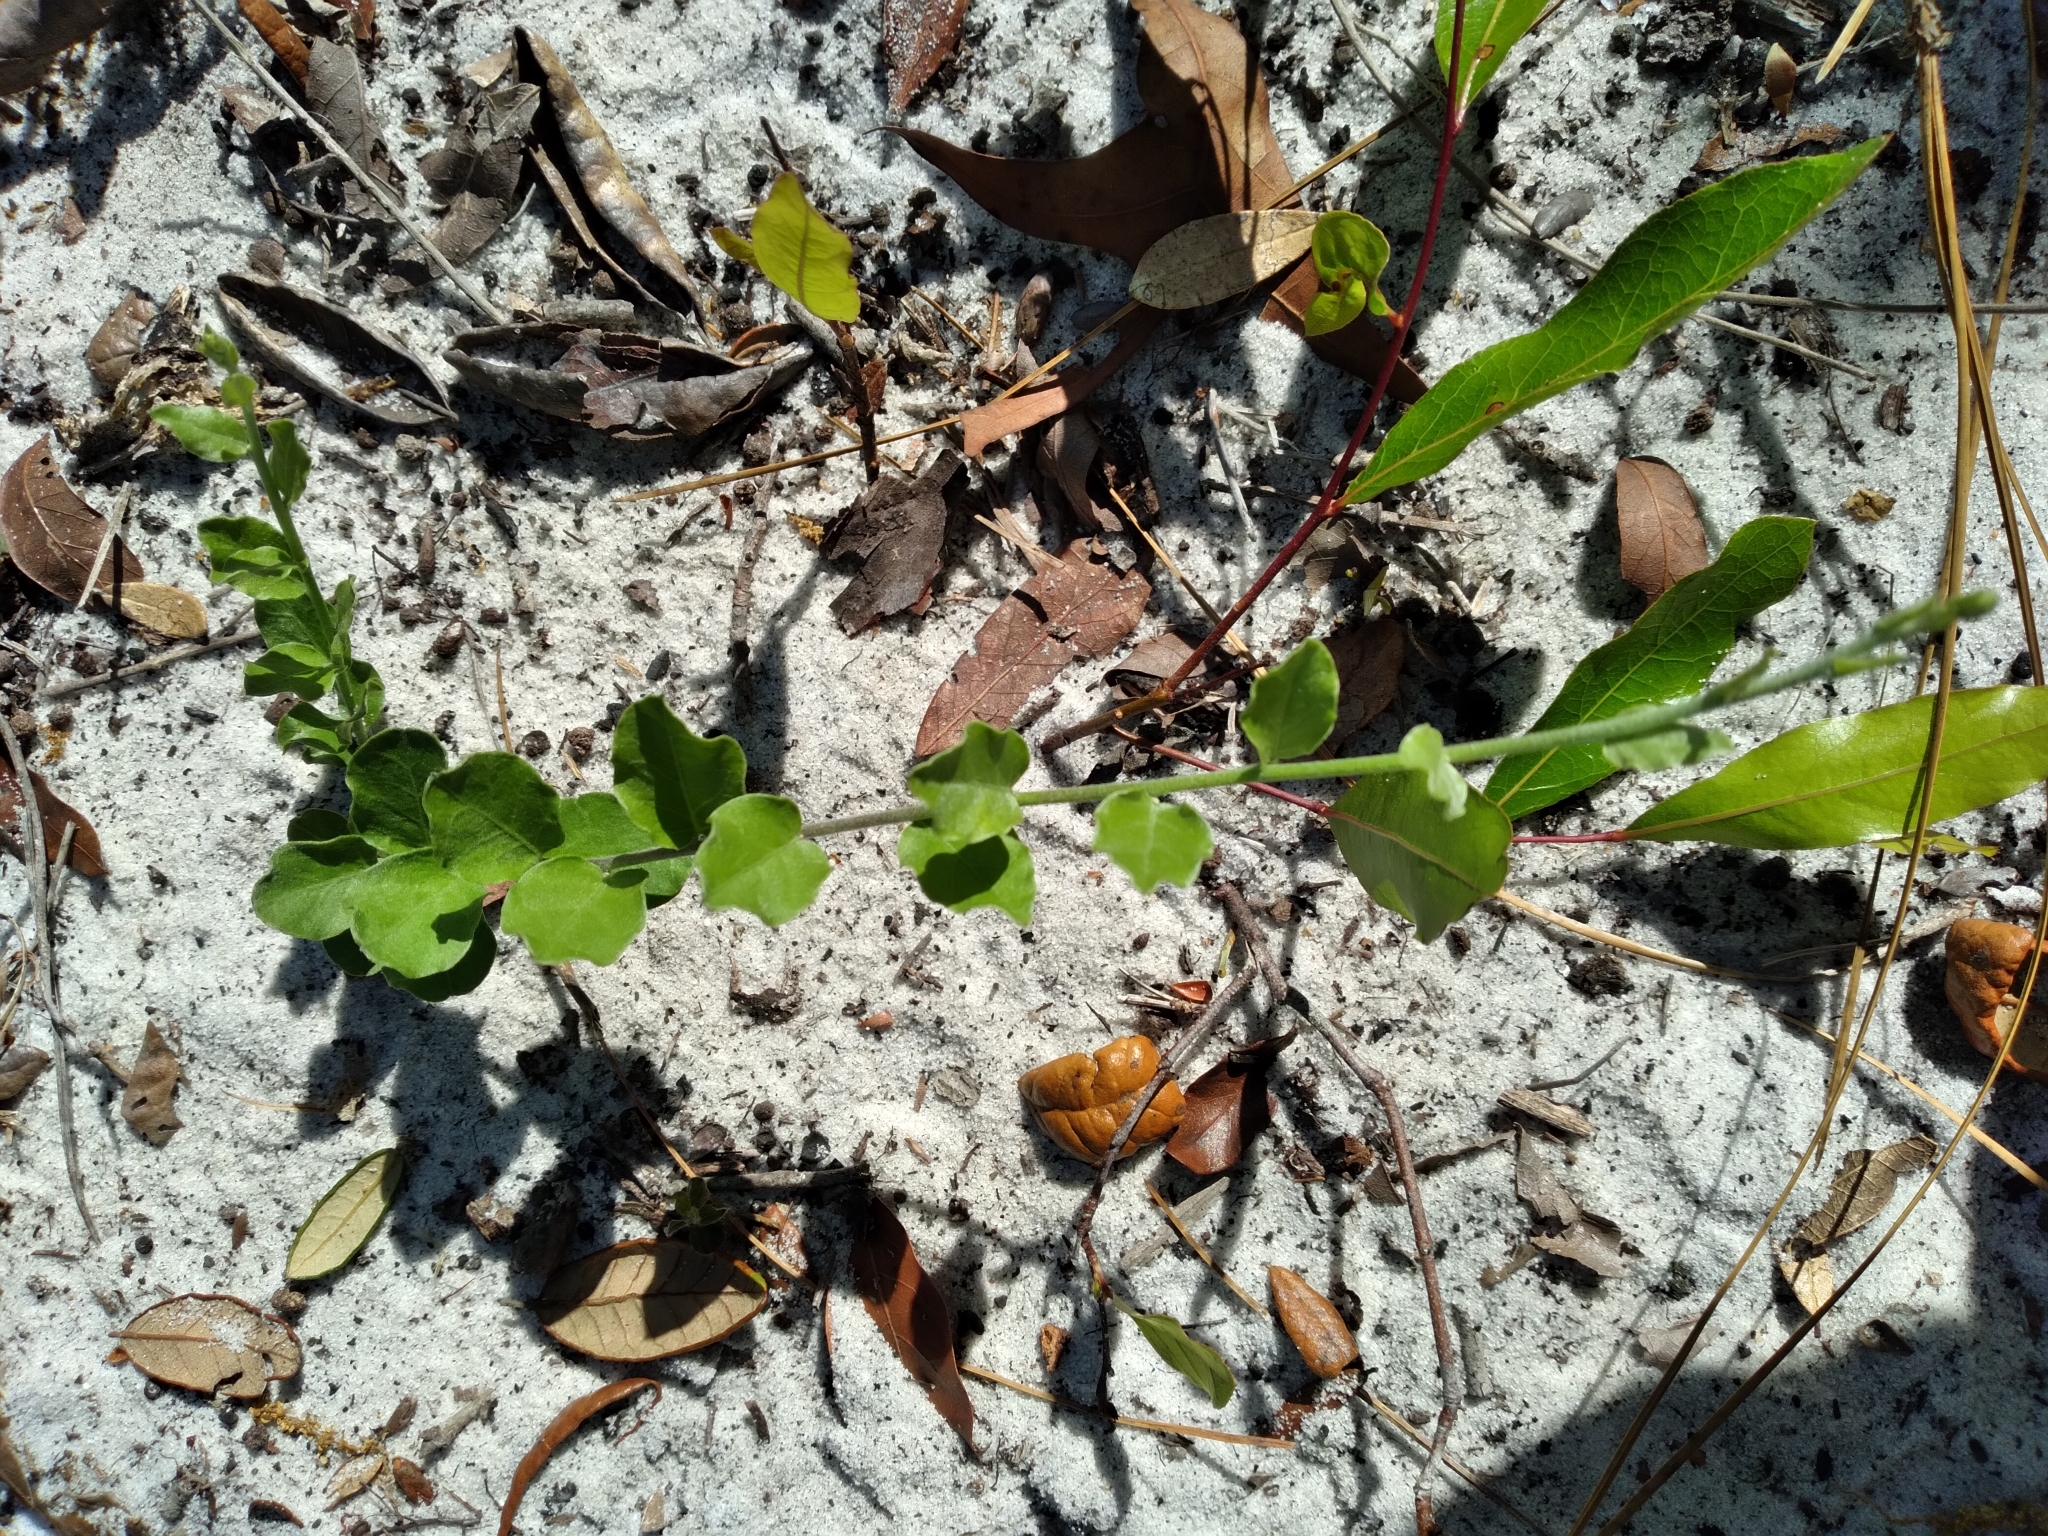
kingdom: Plantae
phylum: Tracheophyta
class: Magnoliopsida
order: Solanales
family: Convolvulaceae
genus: Bonamia
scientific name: Bonamia grandiflora
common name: Florida bonamia
